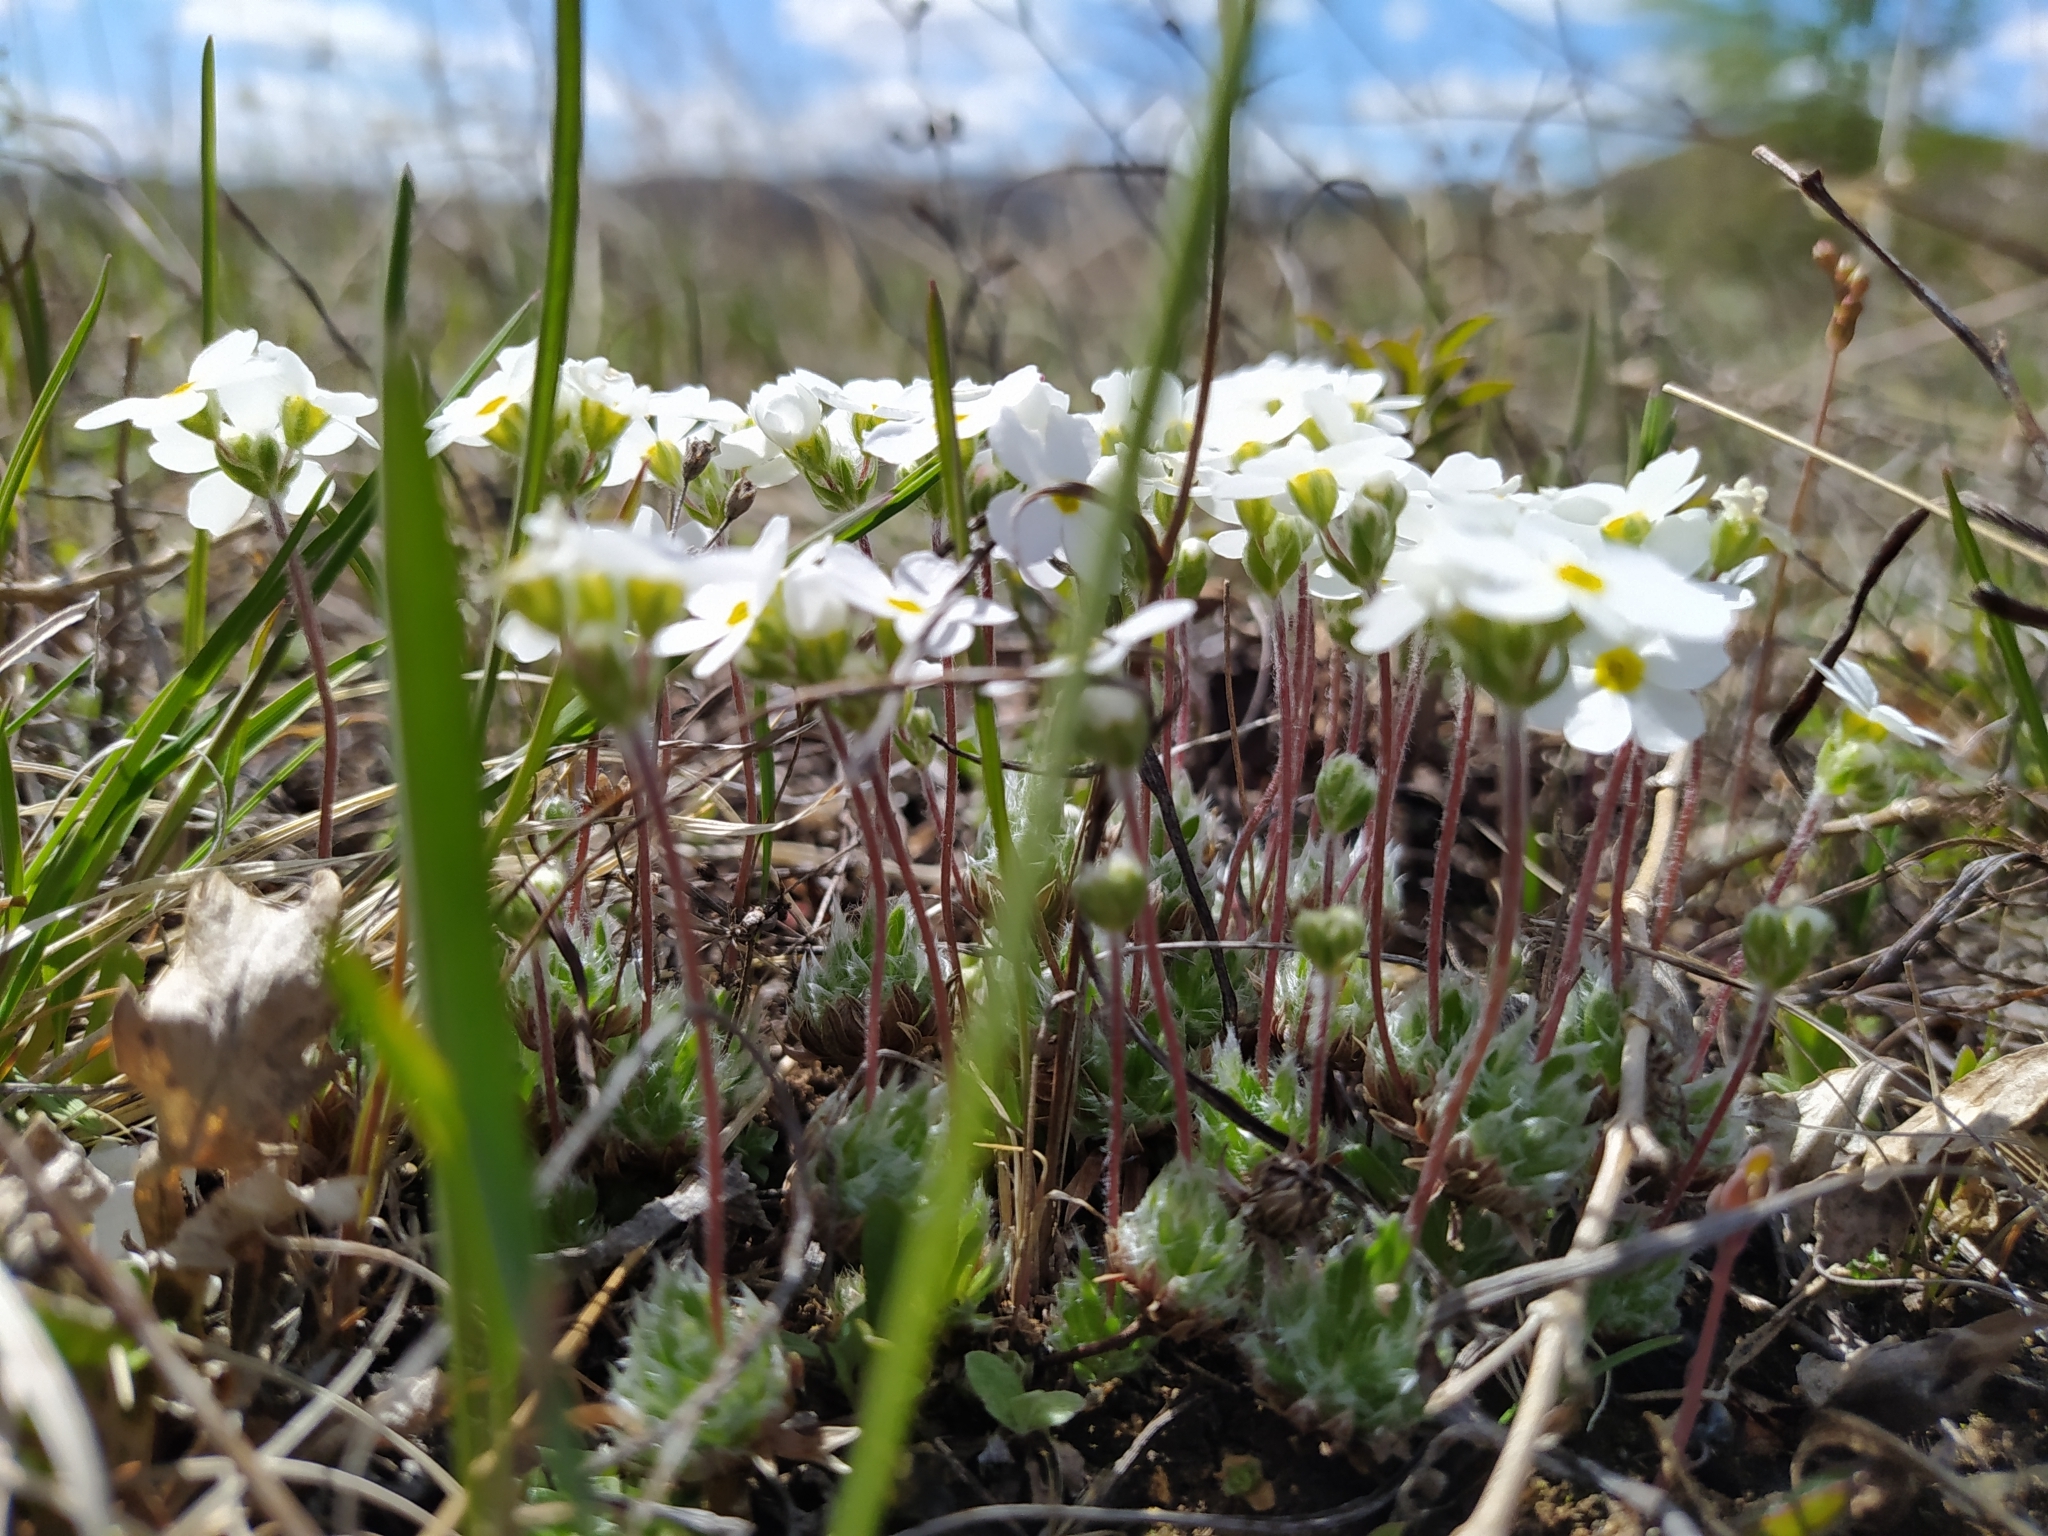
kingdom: Plantae
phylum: Tracheophyta
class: Magnoliopsida
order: Ericales
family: Primulaceae
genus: Androsace
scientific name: Androsace incana
